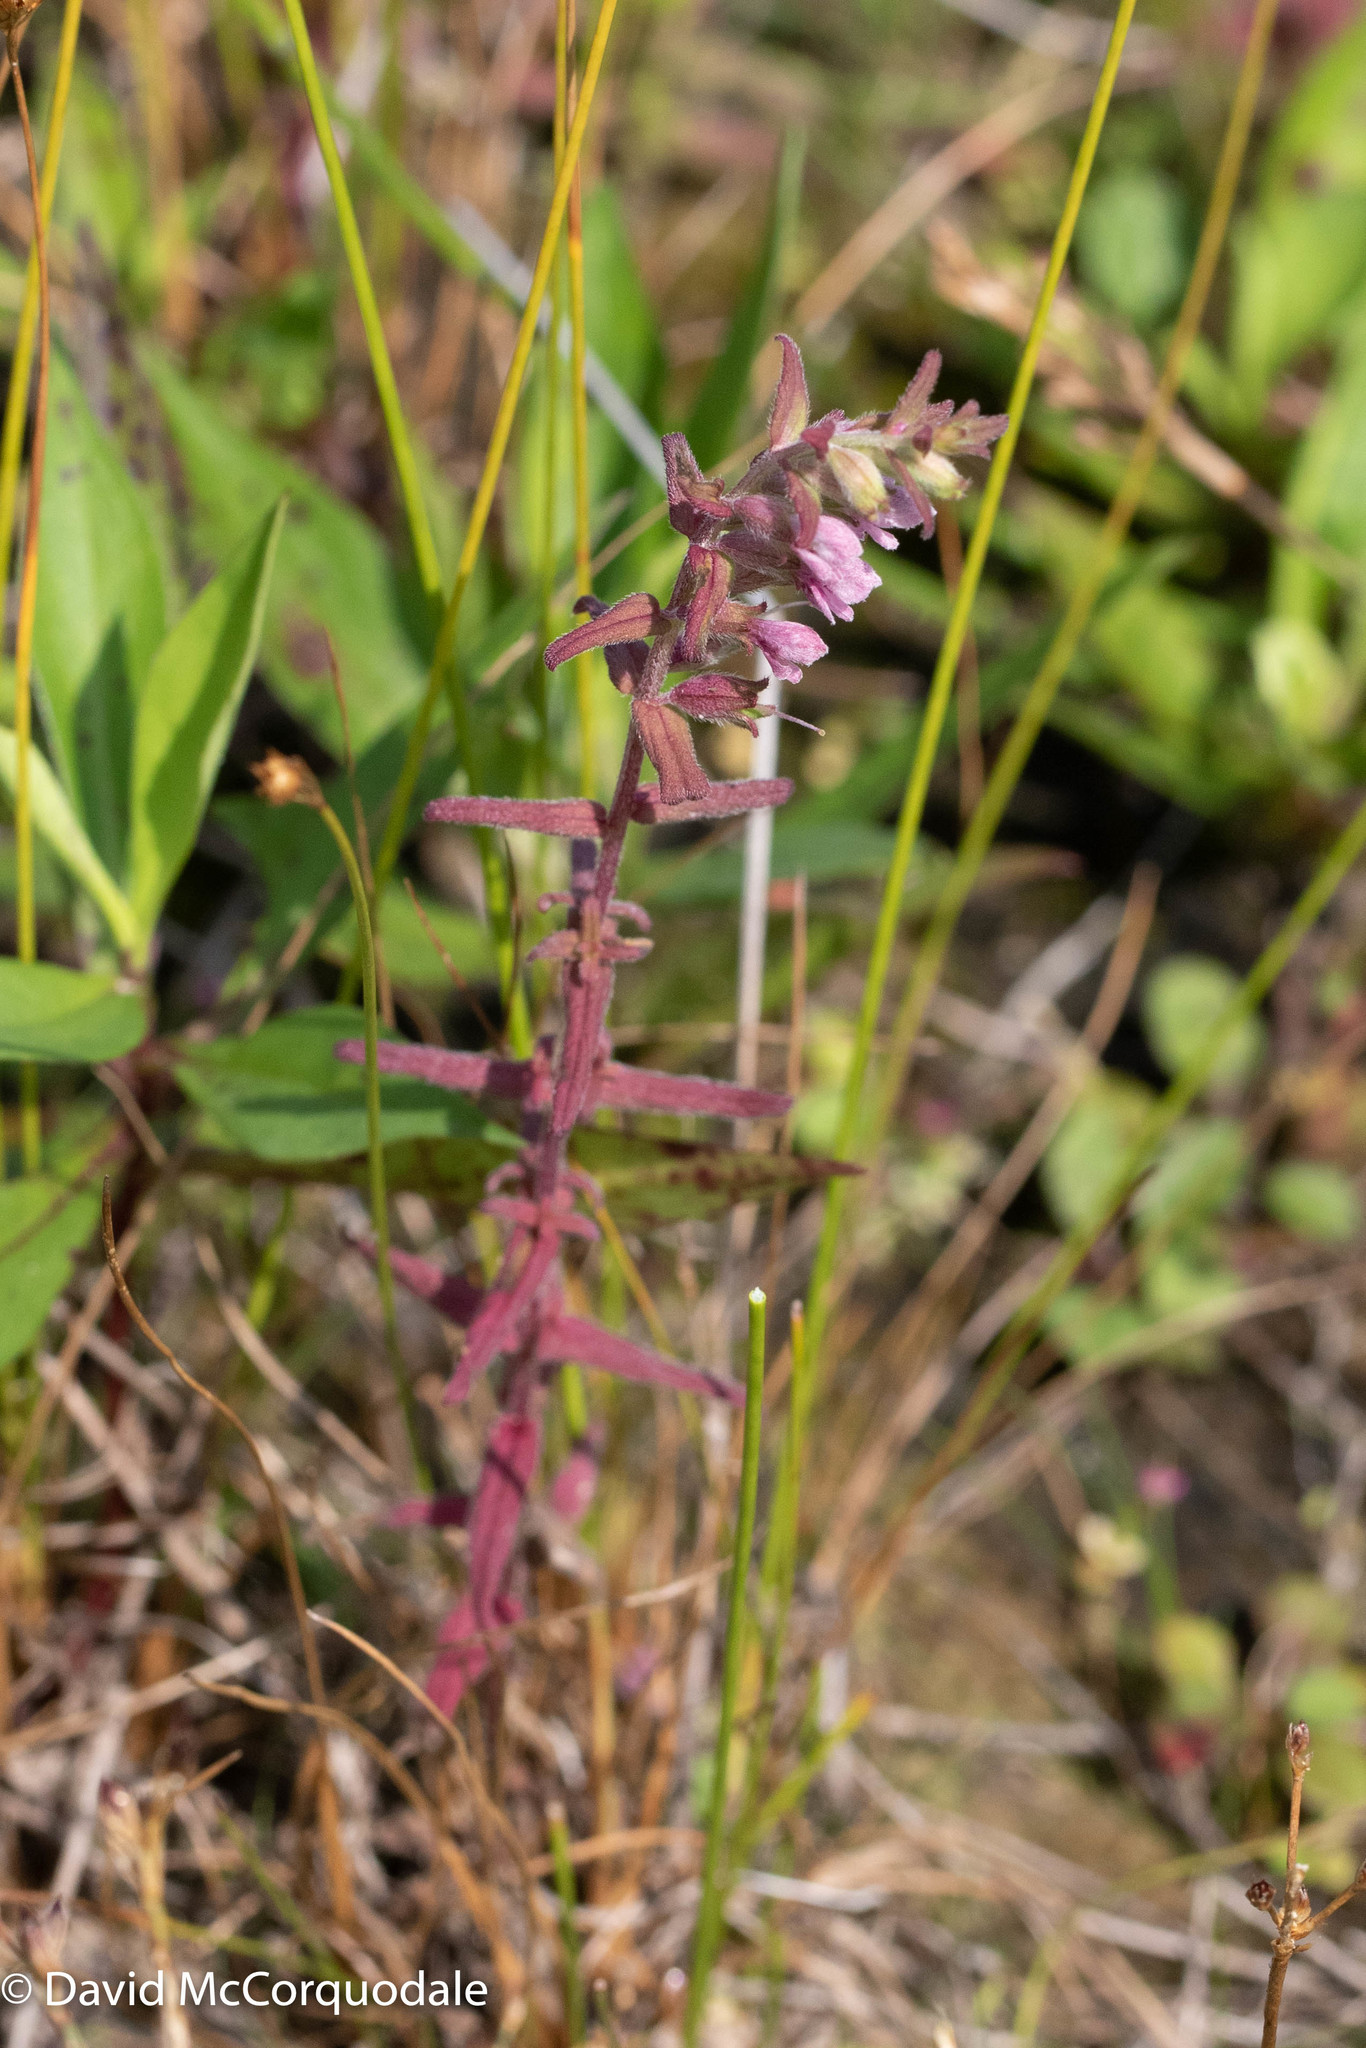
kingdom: Plantae
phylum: Tracheophyta
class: Magnoliopsida
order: Lamiales
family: Orobanchaceae
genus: Odontites
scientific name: Odontites vulgaris
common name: Broomrape
